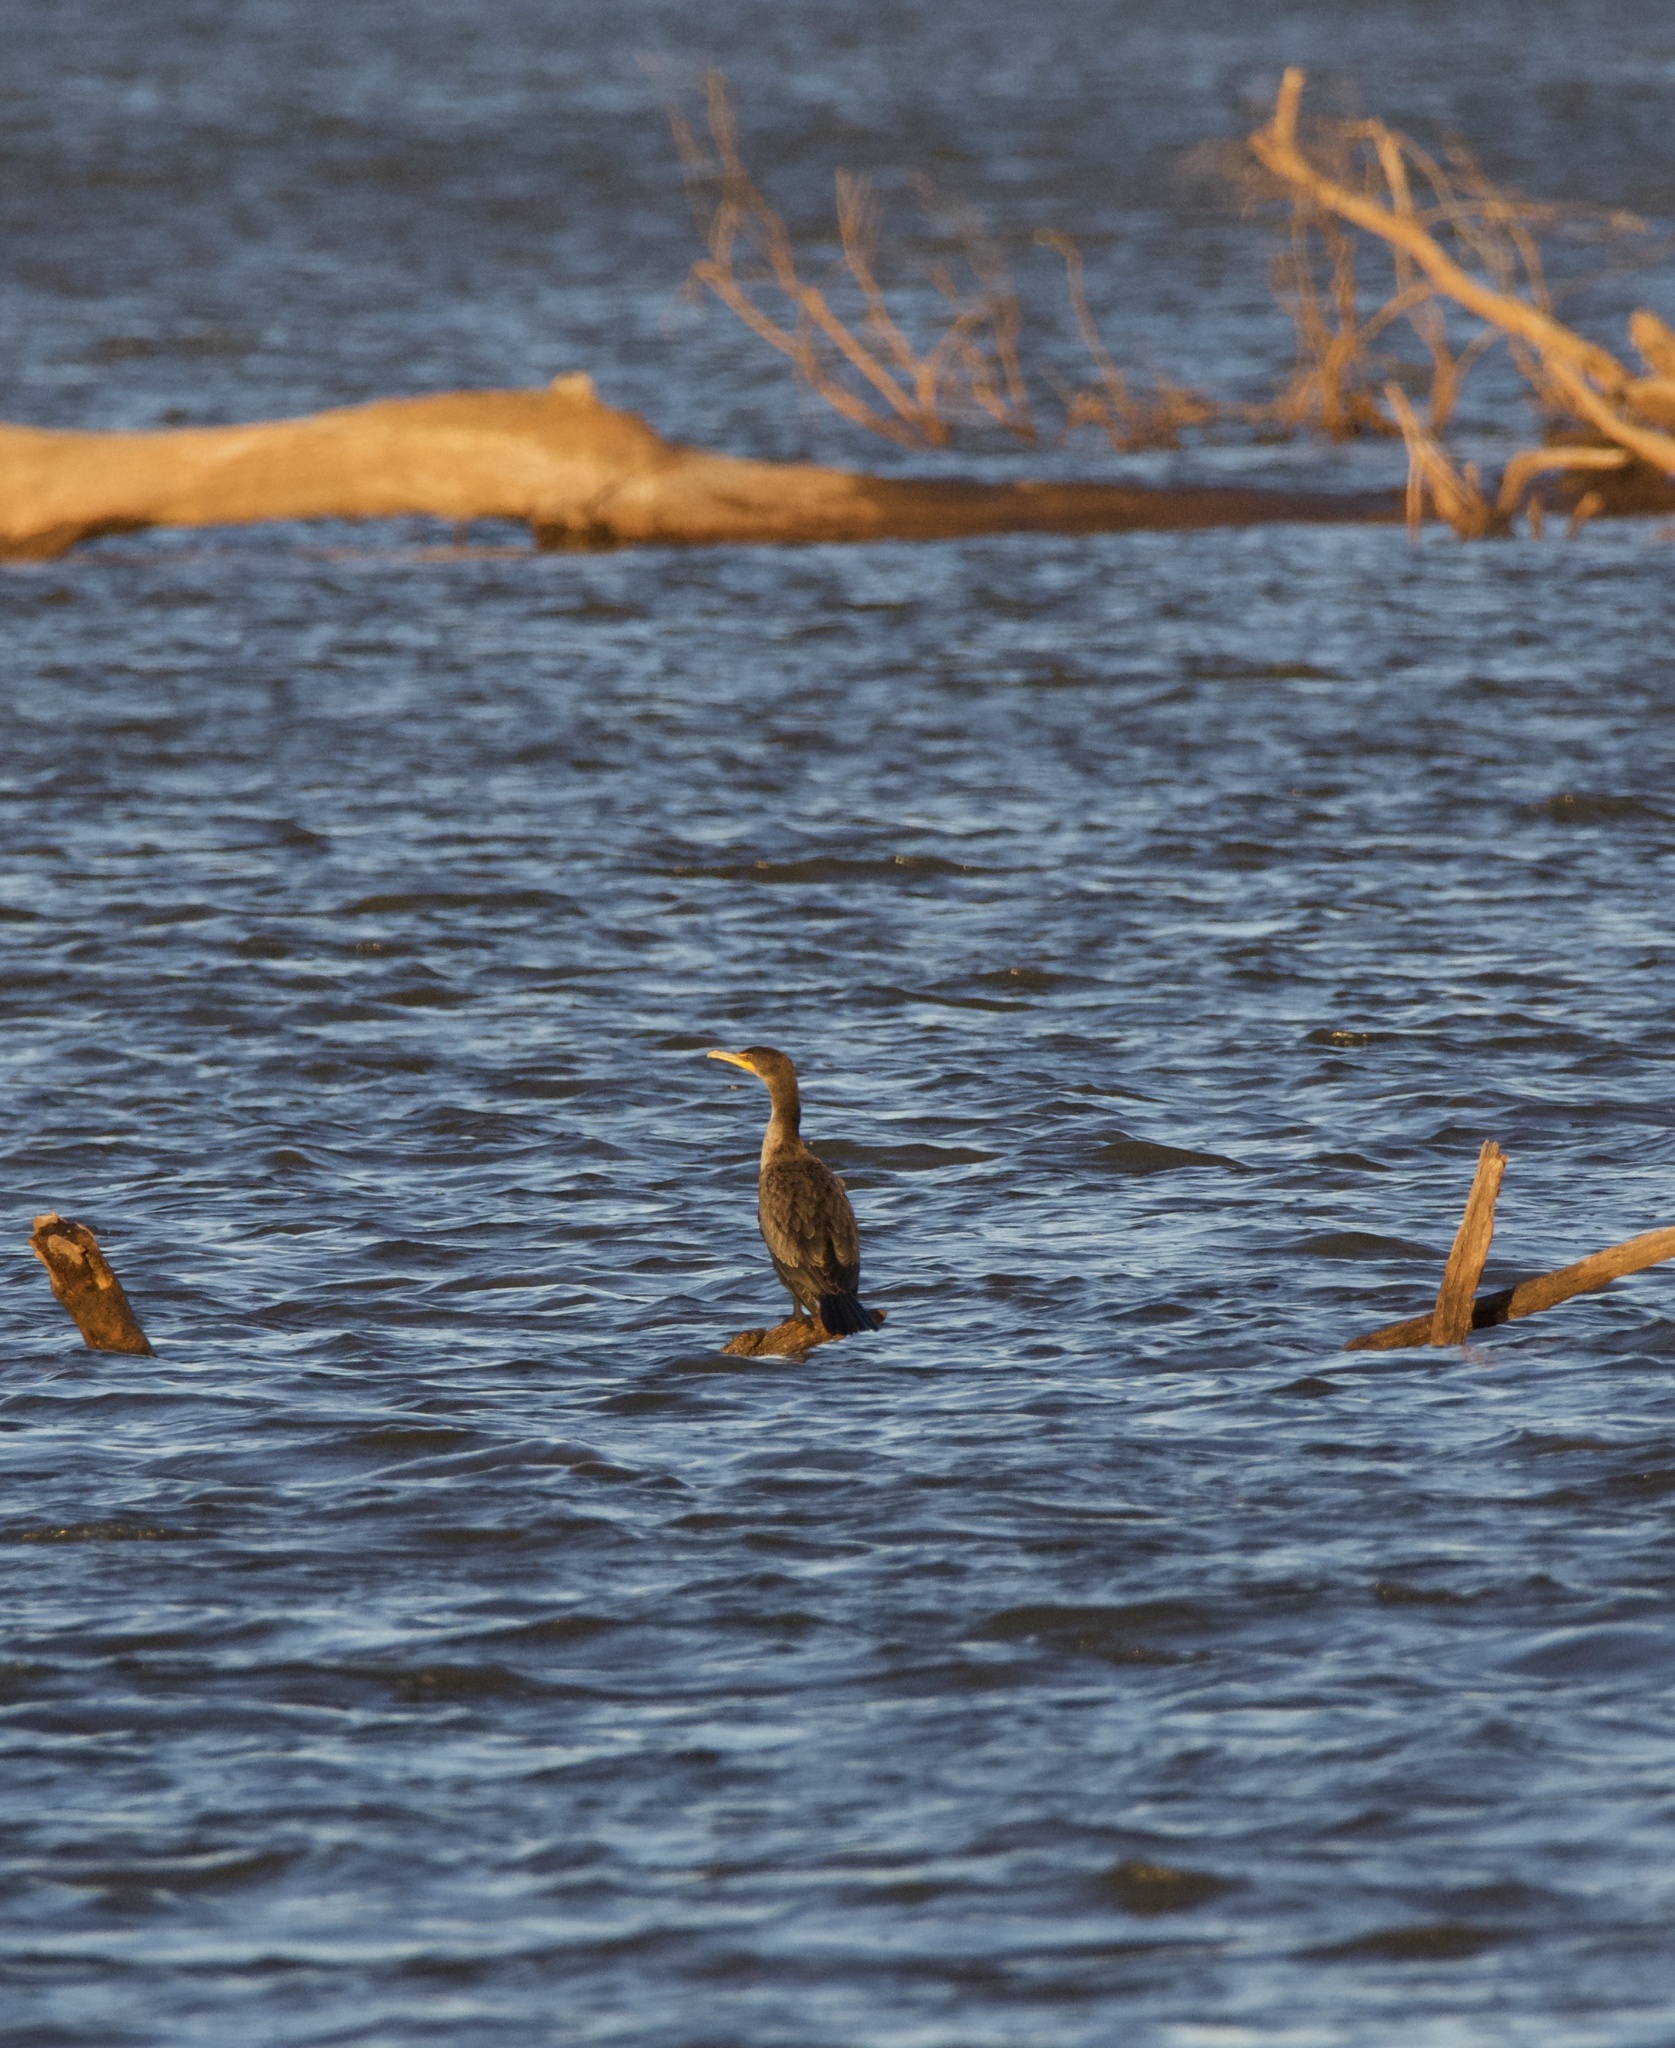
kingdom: Animalia
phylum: Chordata
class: Aves
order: Suliformes
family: Phalacrocoracidae
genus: Phalacrocorax
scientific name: Phalacrocorax auritus
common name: Double-crested cormorant
